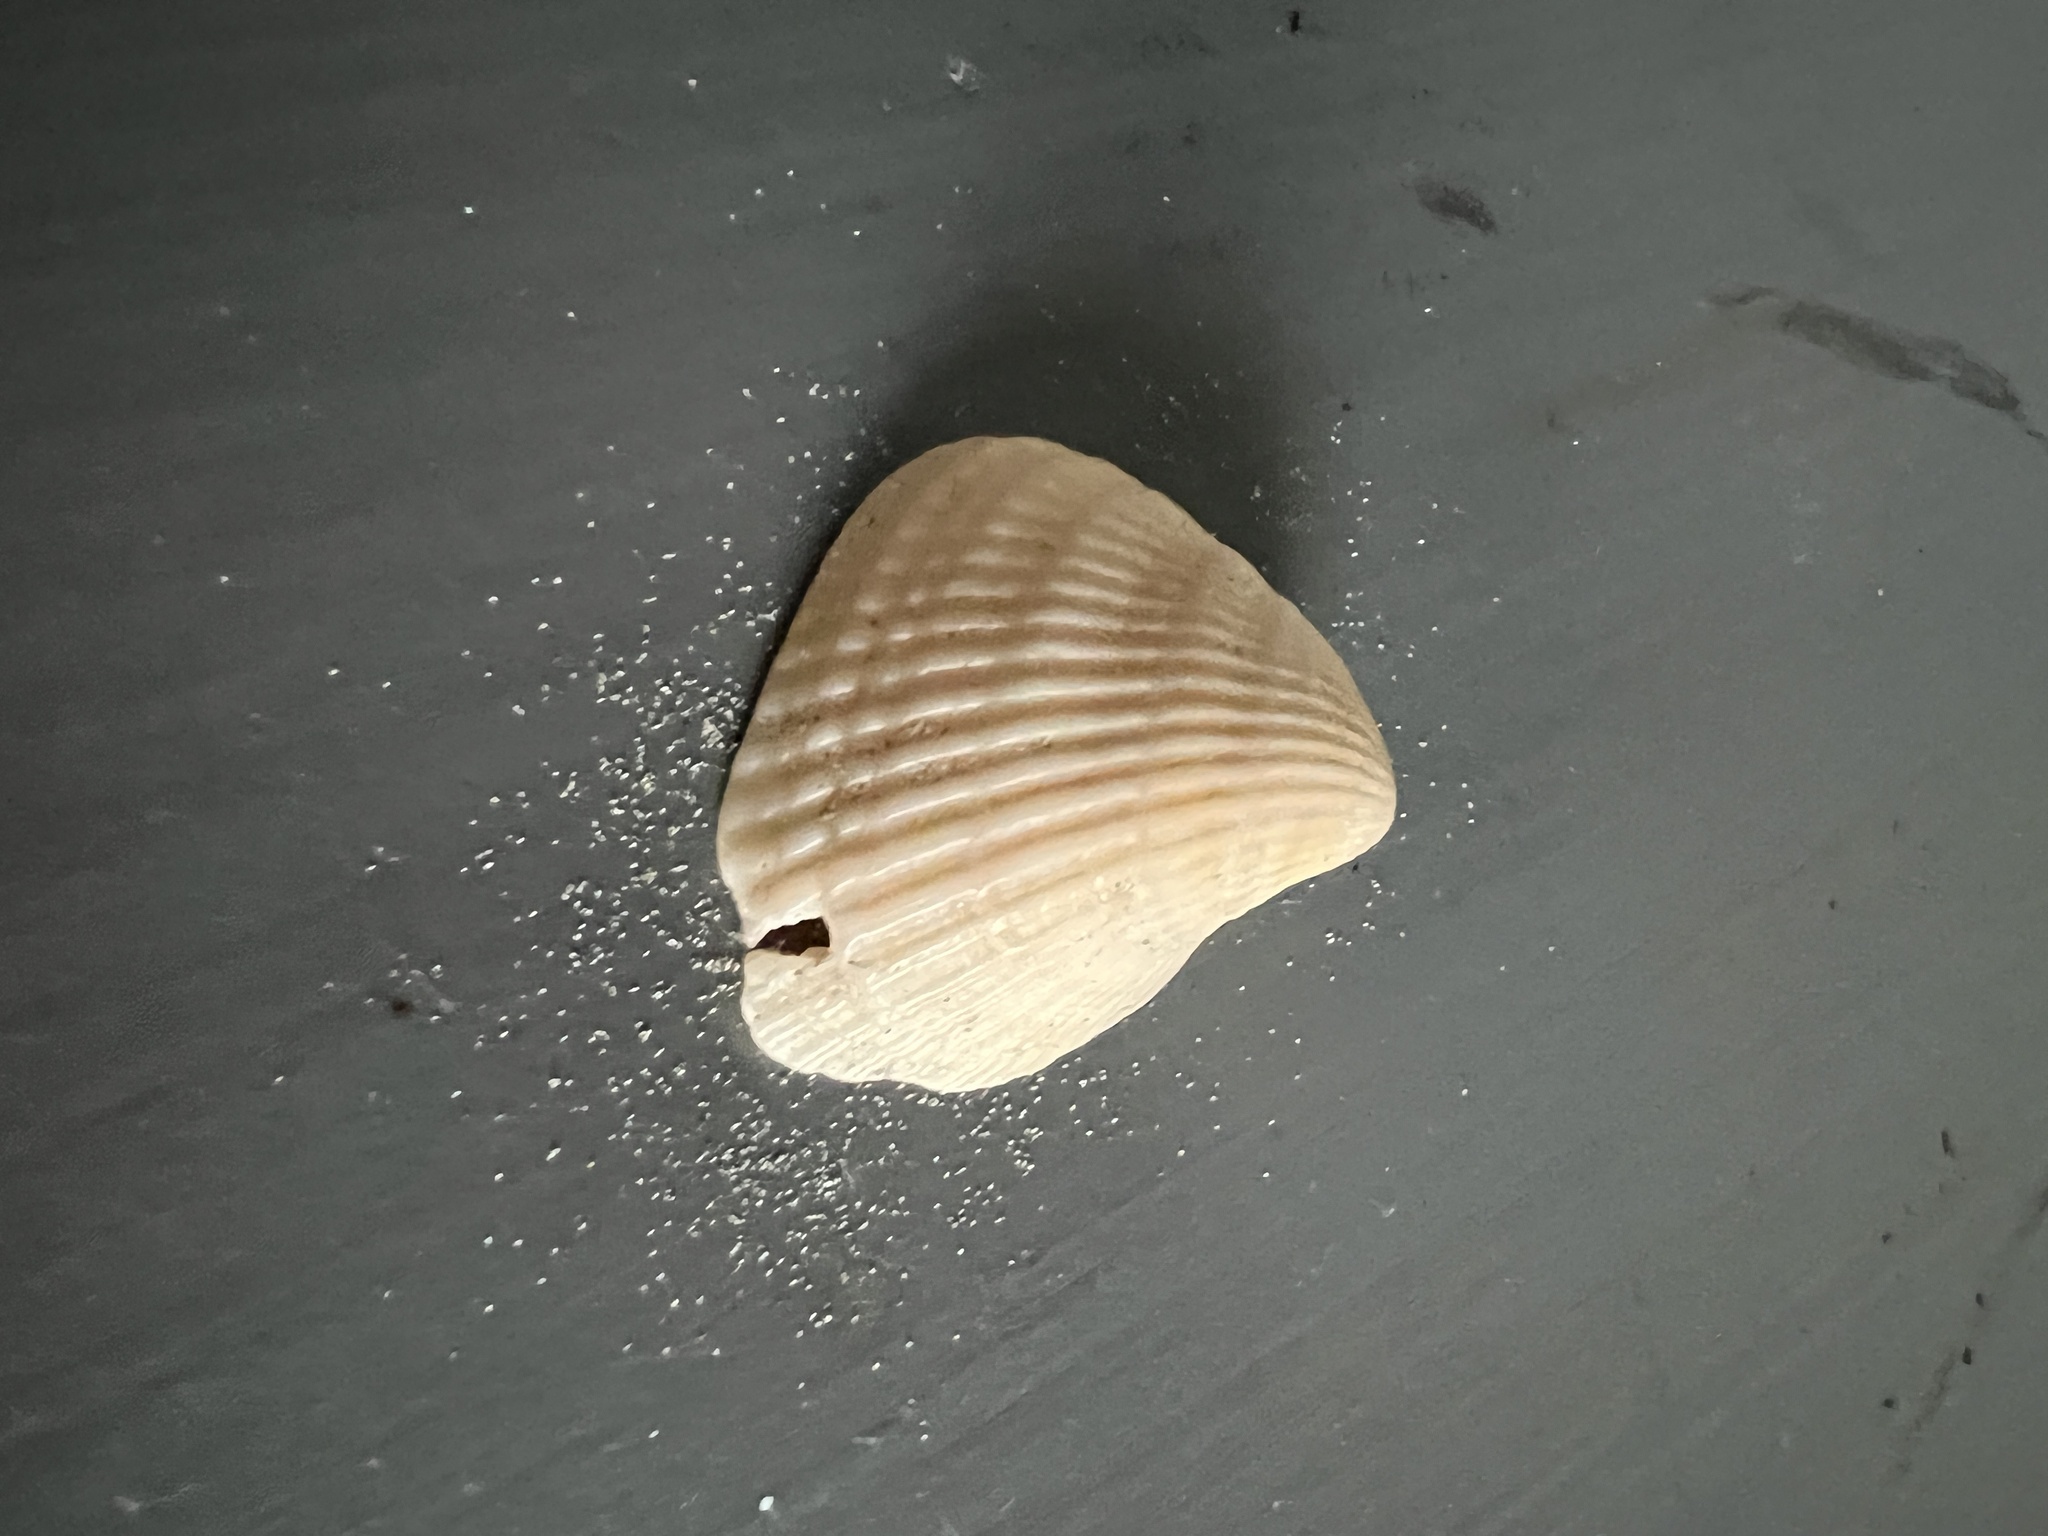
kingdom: Animalia
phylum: Mollusca
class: Bivalvia
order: Arcida
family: Noetiidae
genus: Noetia
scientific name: Noetia ponderosa
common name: Ponderous ark
